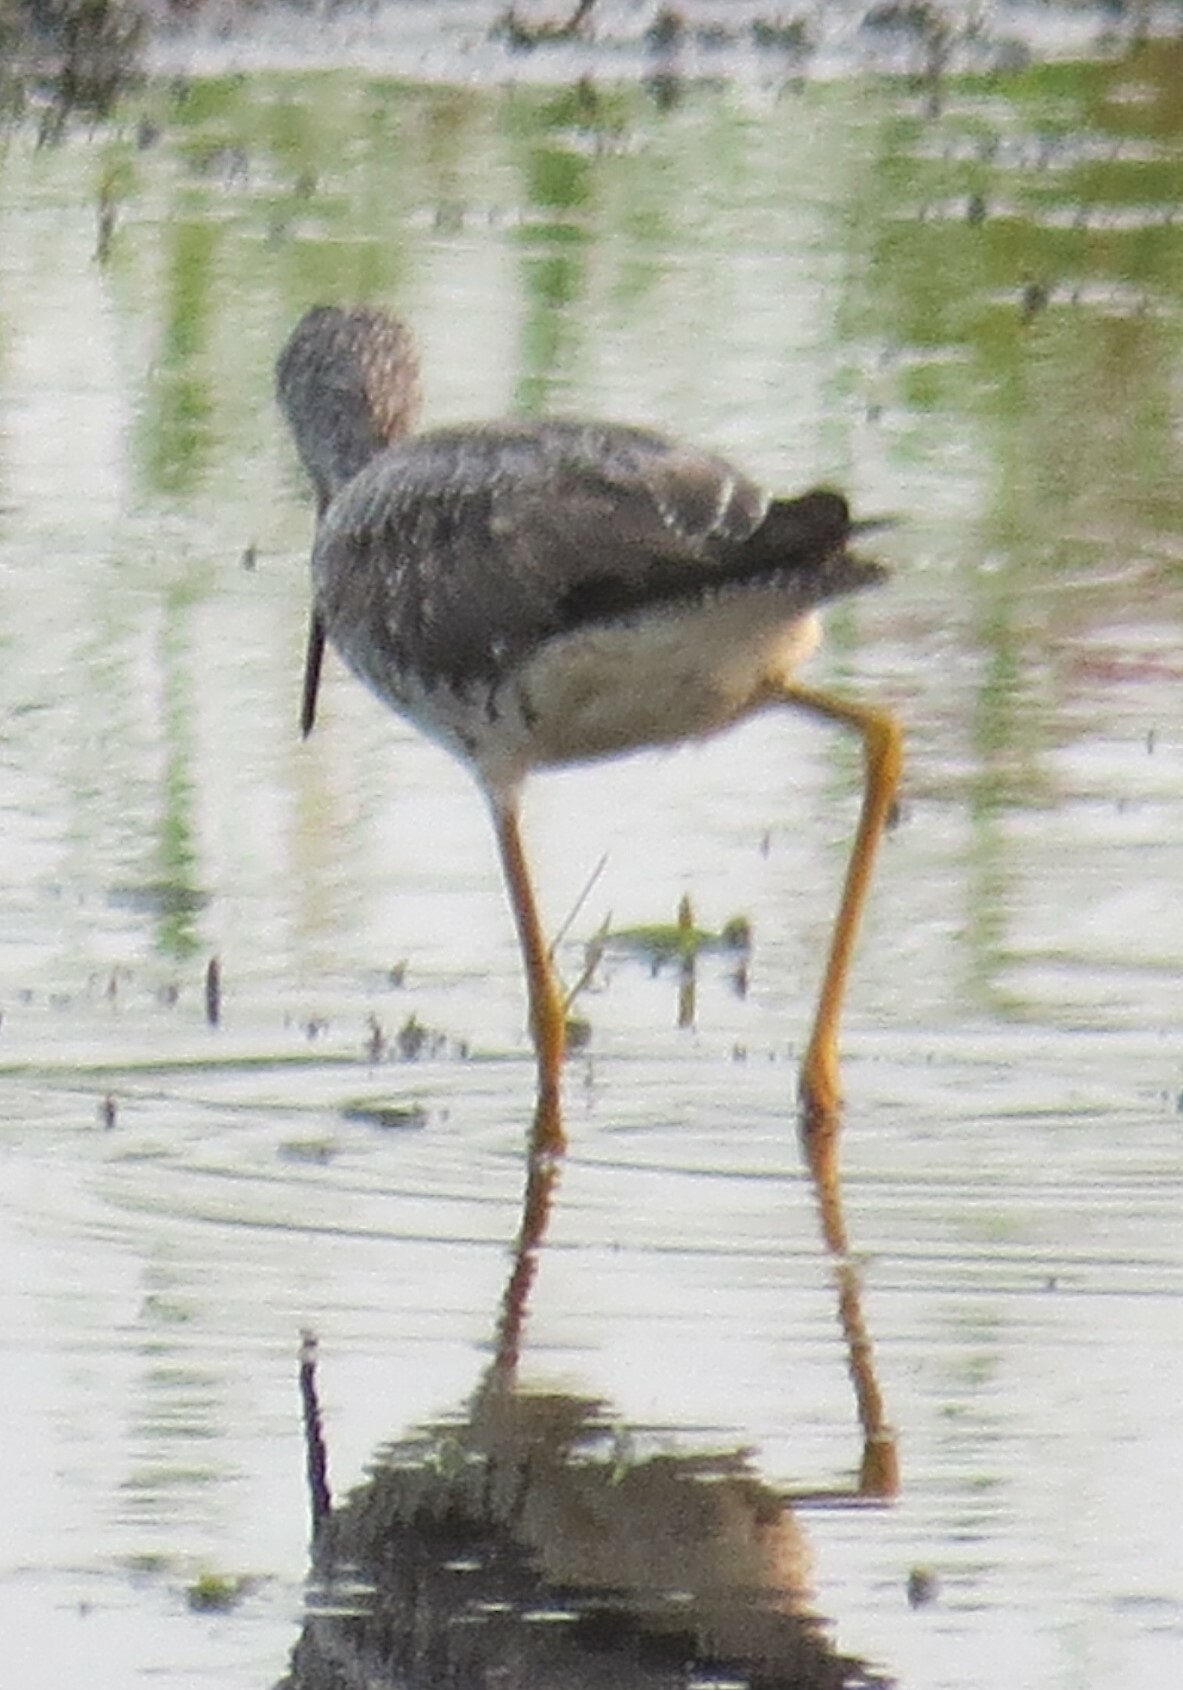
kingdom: Animalia
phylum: Chordata
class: Aves
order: Charadriiformes
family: Scolopacidae
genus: Tringa
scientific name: Tringa melanoleuca
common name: Greater yellowlegs
